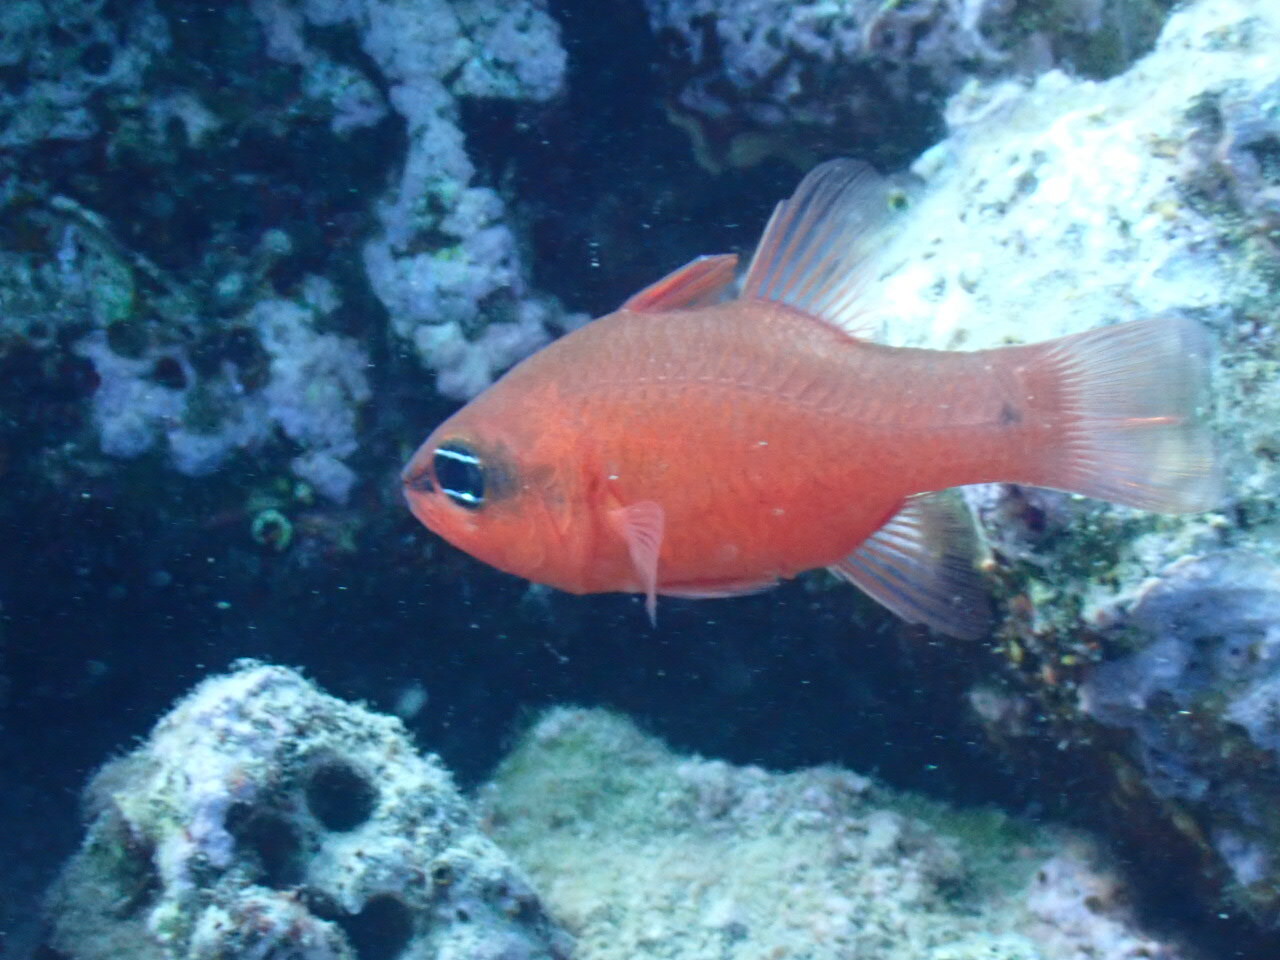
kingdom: Animalia
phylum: Chordata
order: Perciformes
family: Apogonidae
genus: Apogon
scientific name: Apogon imberbis
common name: Cardinal fish
